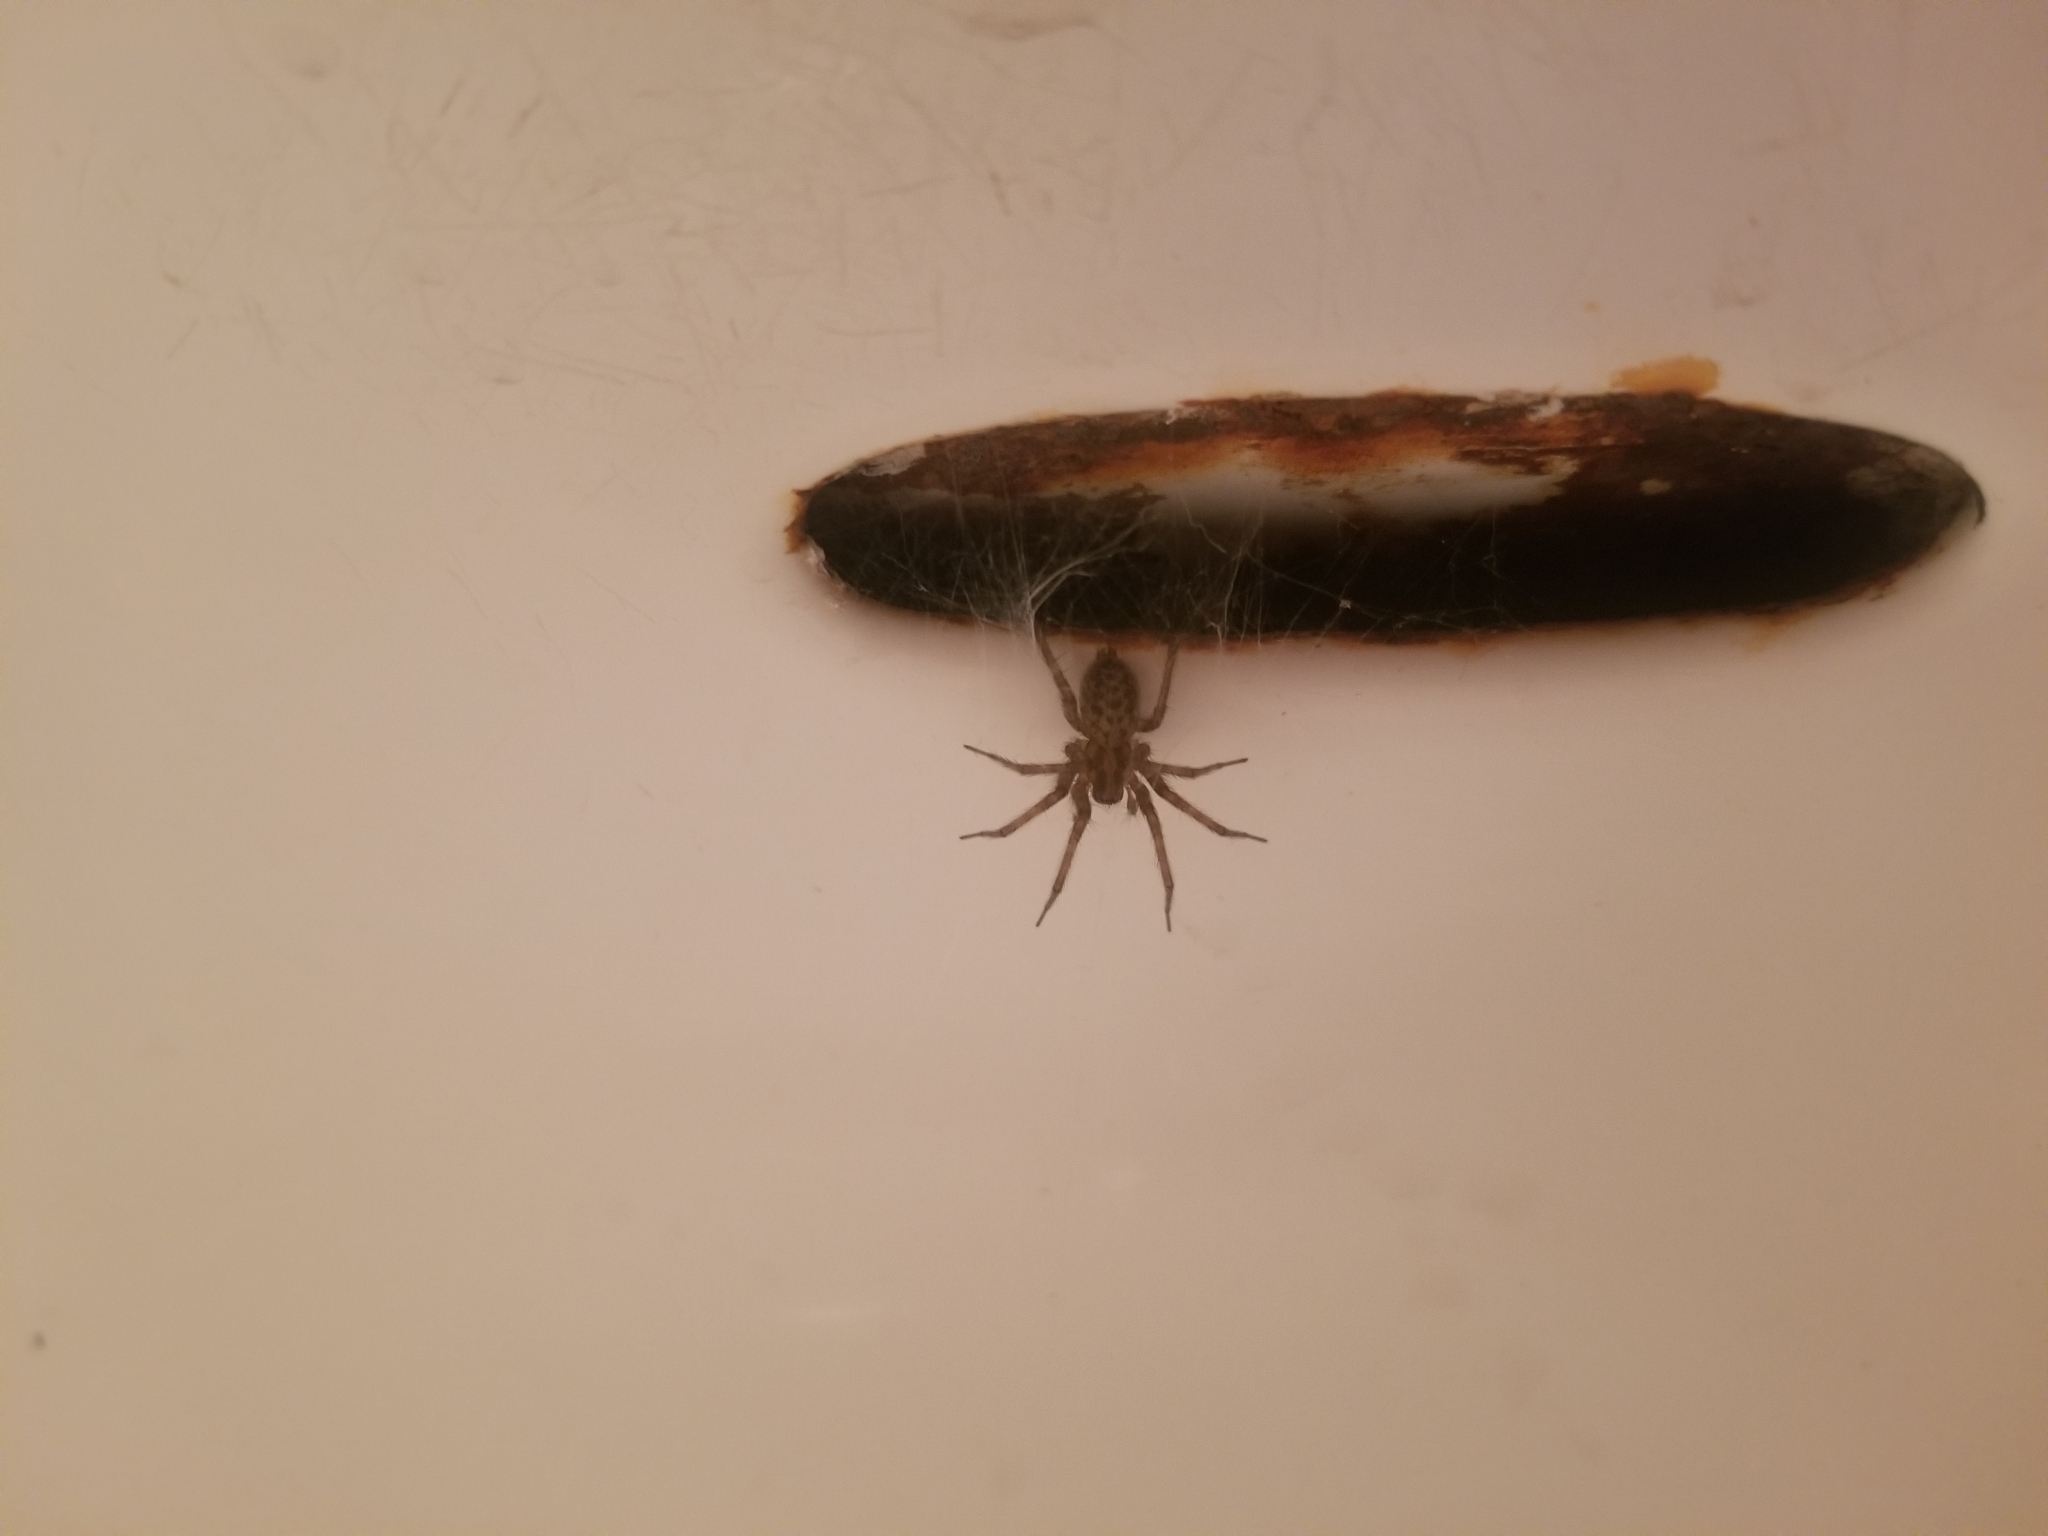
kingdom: Animalia
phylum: Arthropoda
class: Arachnida
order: Araneae
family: Agelenidae
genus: Tegenaria
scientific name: Tegenaria domestica
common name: Barn funnel weaver
